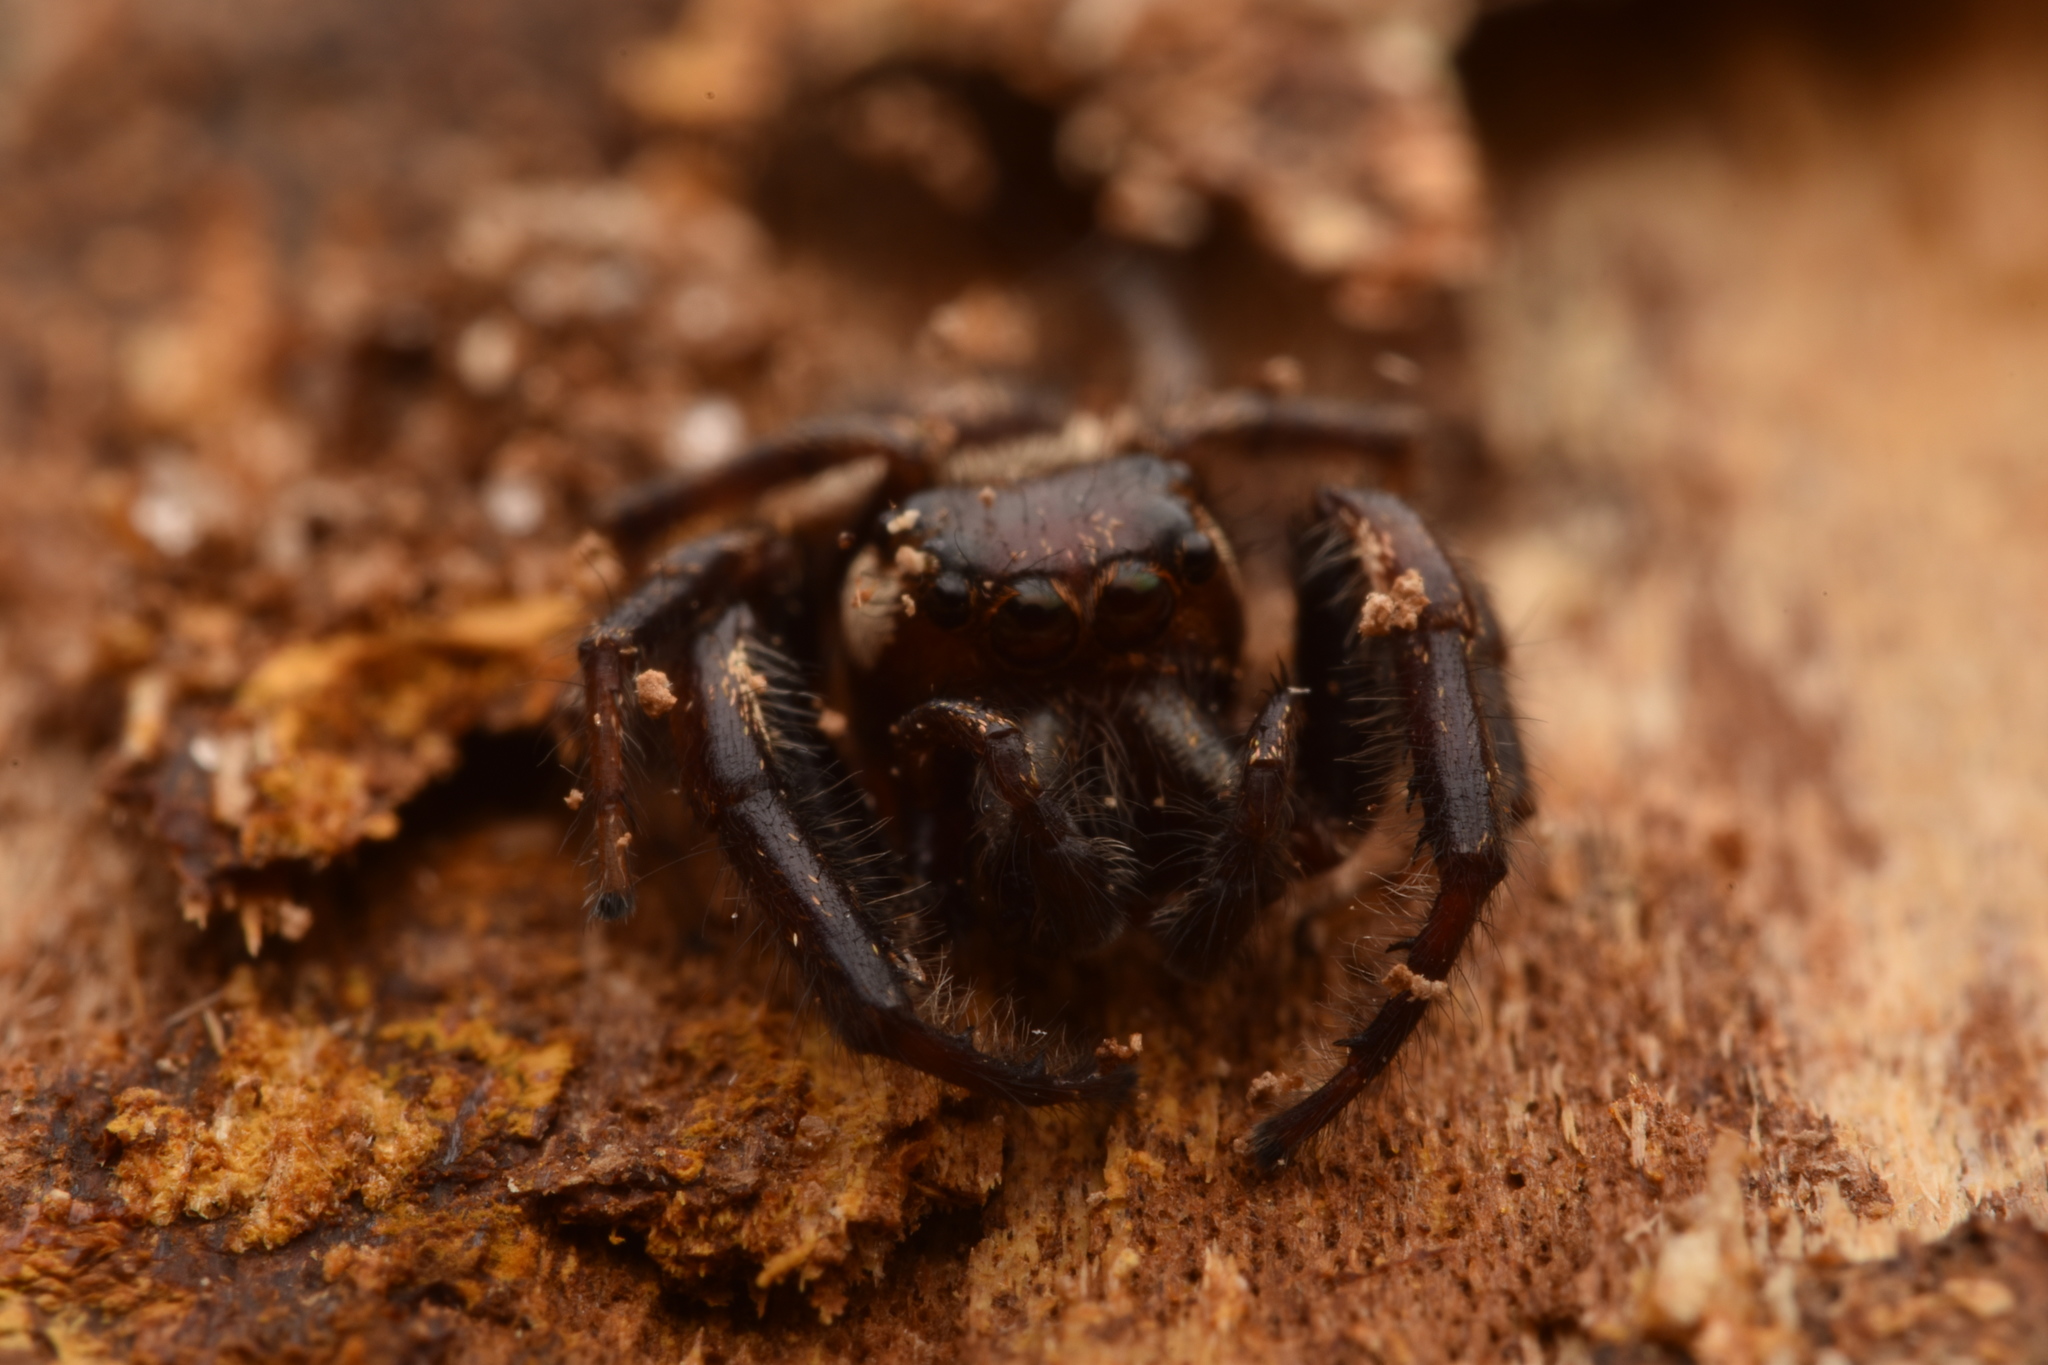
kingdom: Animalia
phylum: Arthropoda
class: Arachnida
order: Araneae
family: Salticidae
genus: Eris
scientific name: Eris militaris
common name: Bronze jumper
